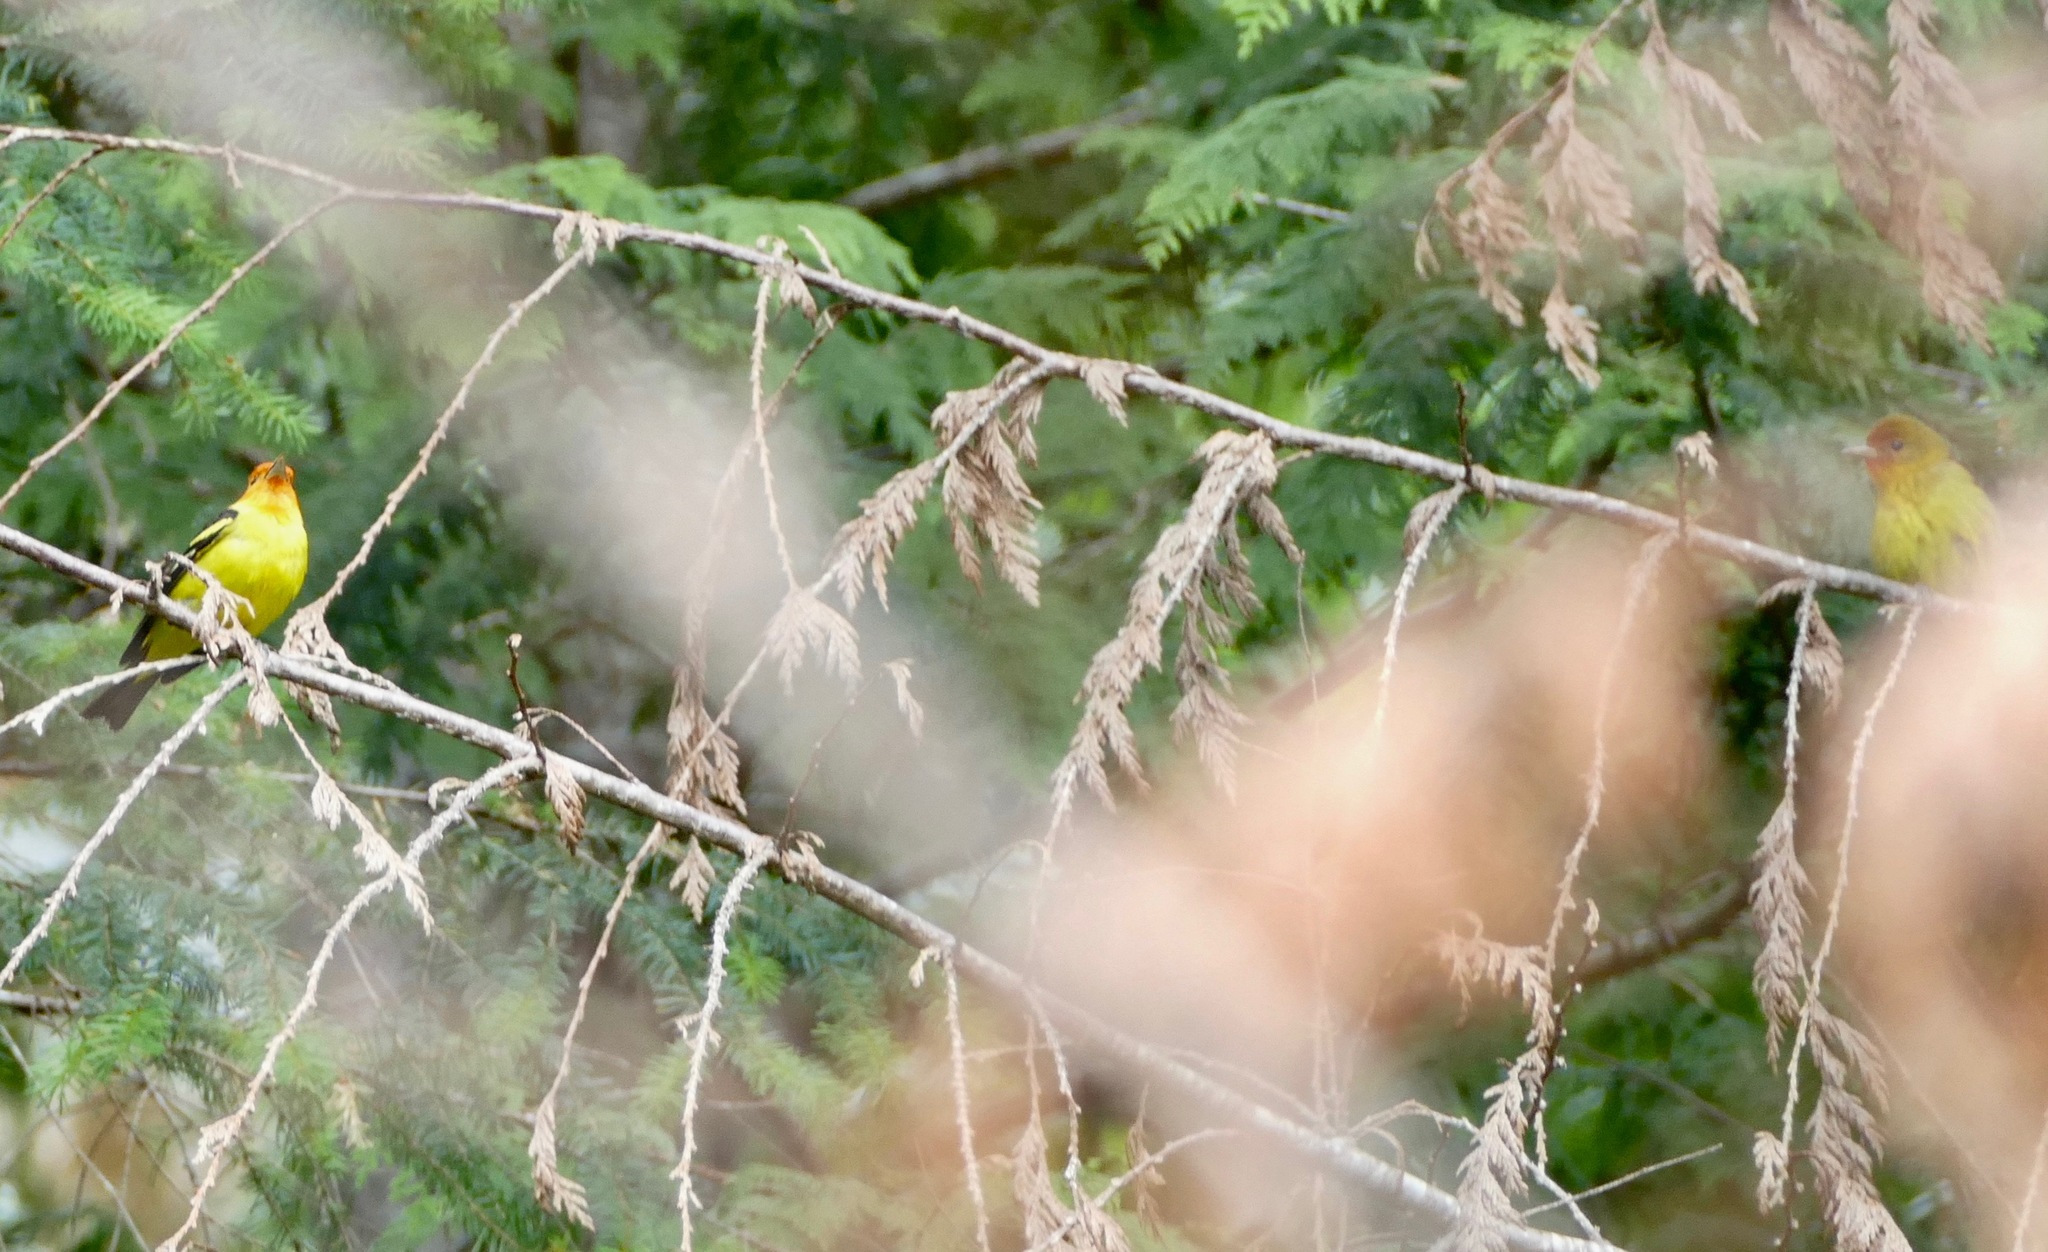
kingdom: Animalia
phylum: Chordata
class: Aves
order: Passeriformes
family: Cardinalidae
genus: Piranga
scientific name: Piranga ludoviciana
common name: Western tanager
